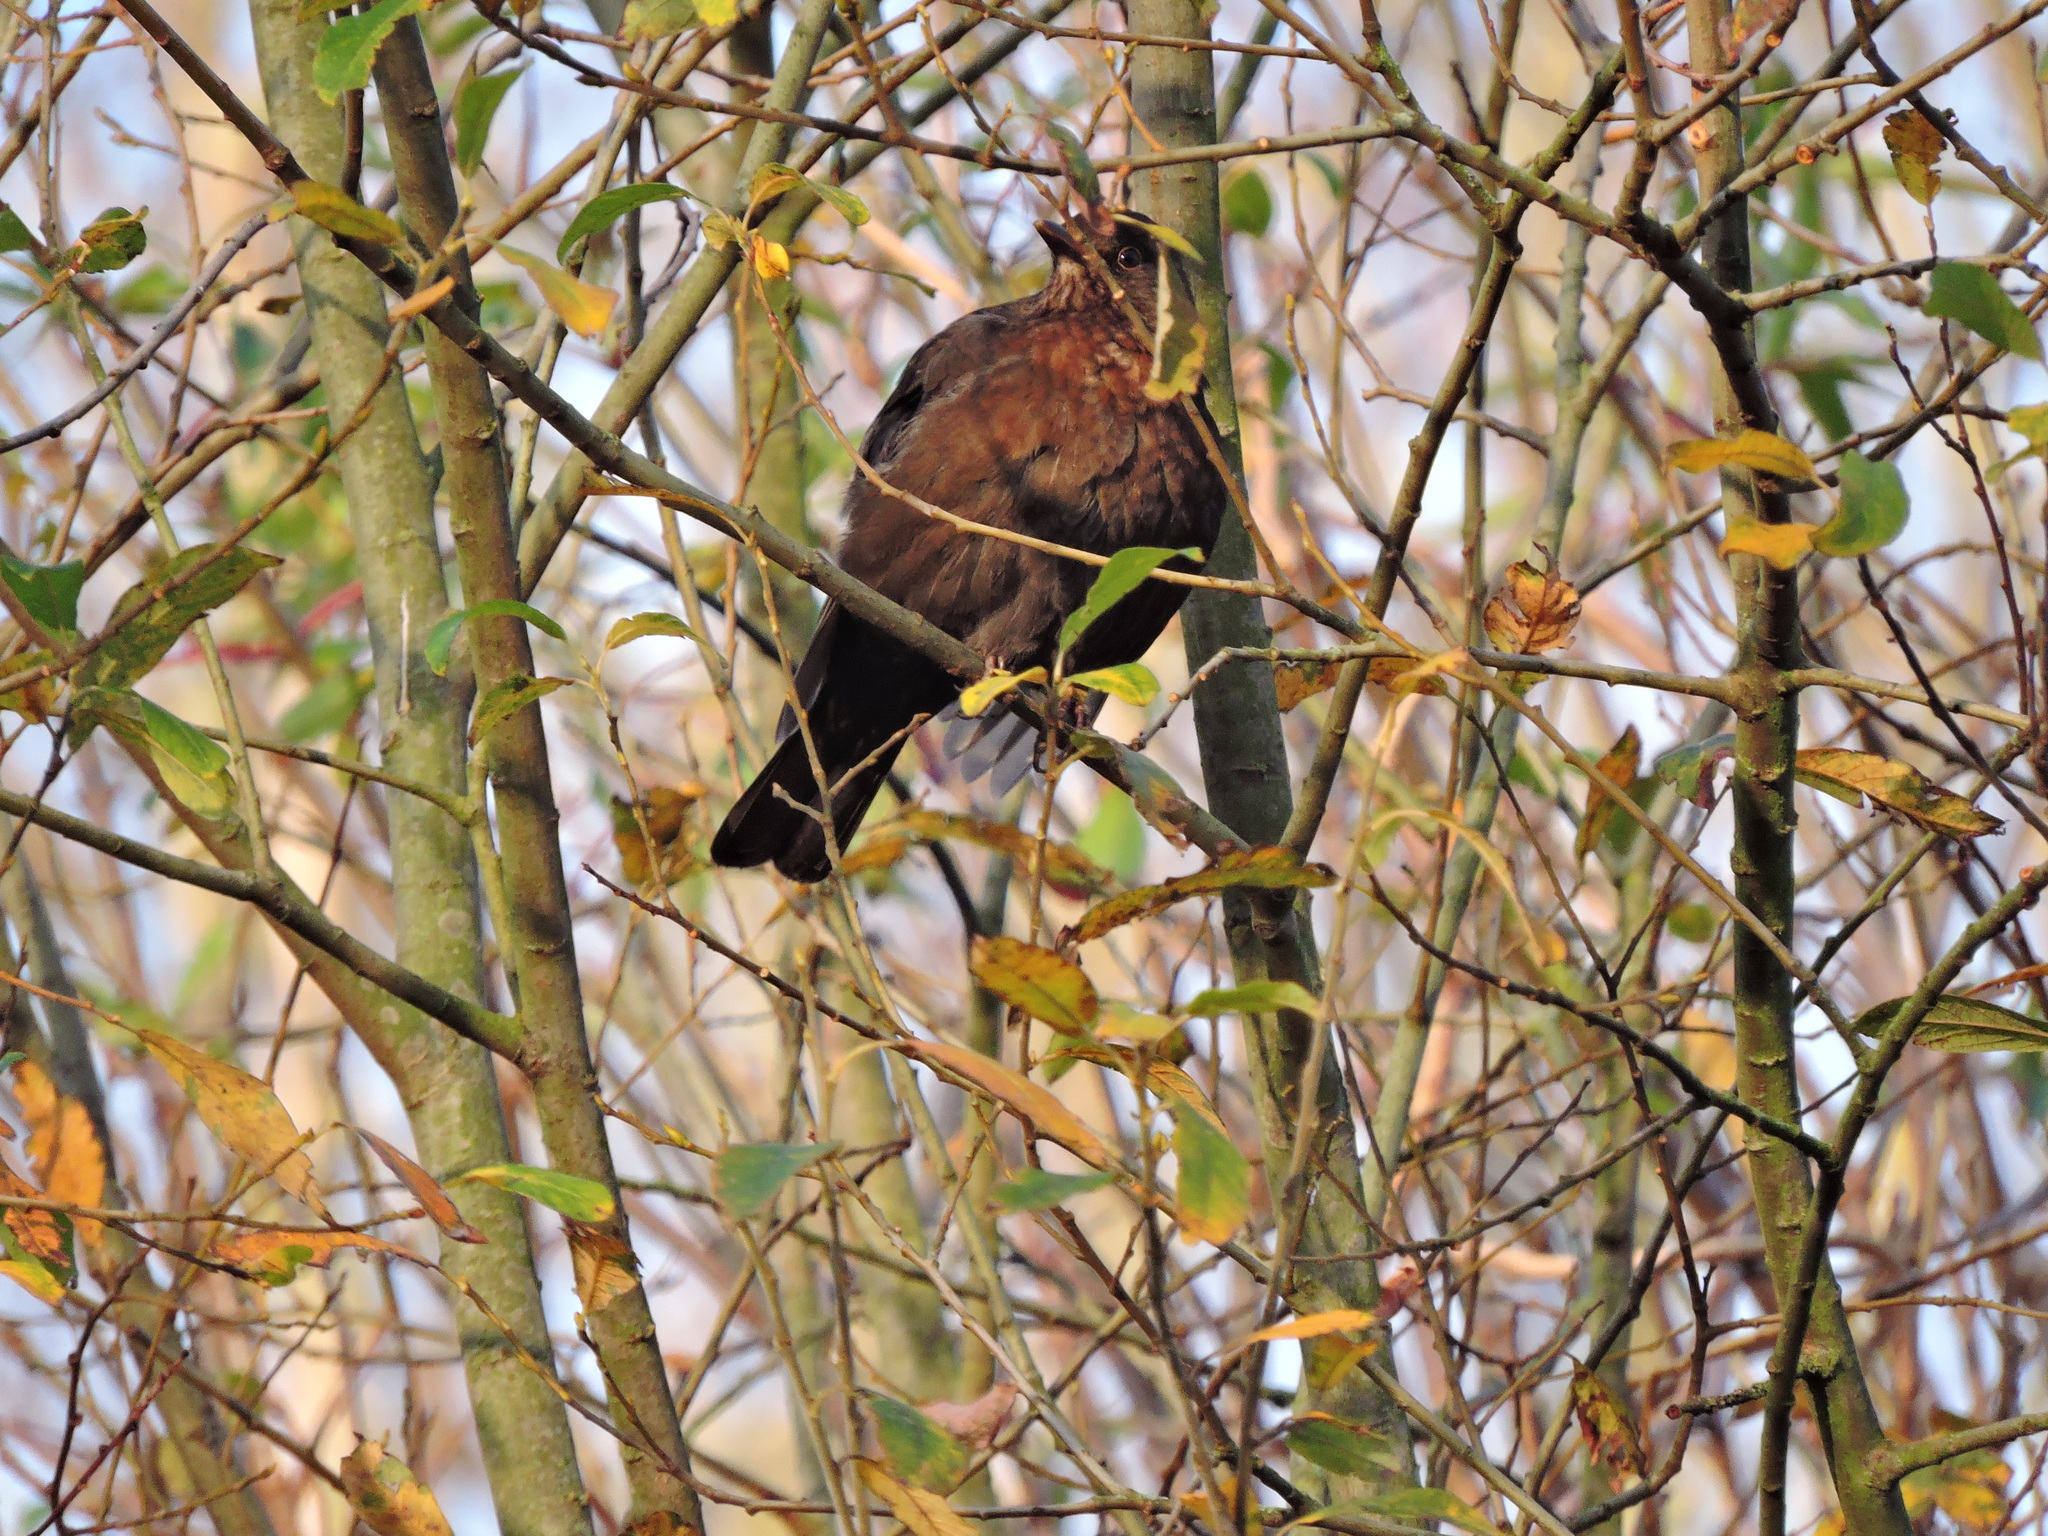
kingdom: Animalia
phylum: Chordata
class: Aves
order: Passeriformes
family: Turdidae
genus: Turdus
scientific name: Turdus merula
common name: Common blackbird
